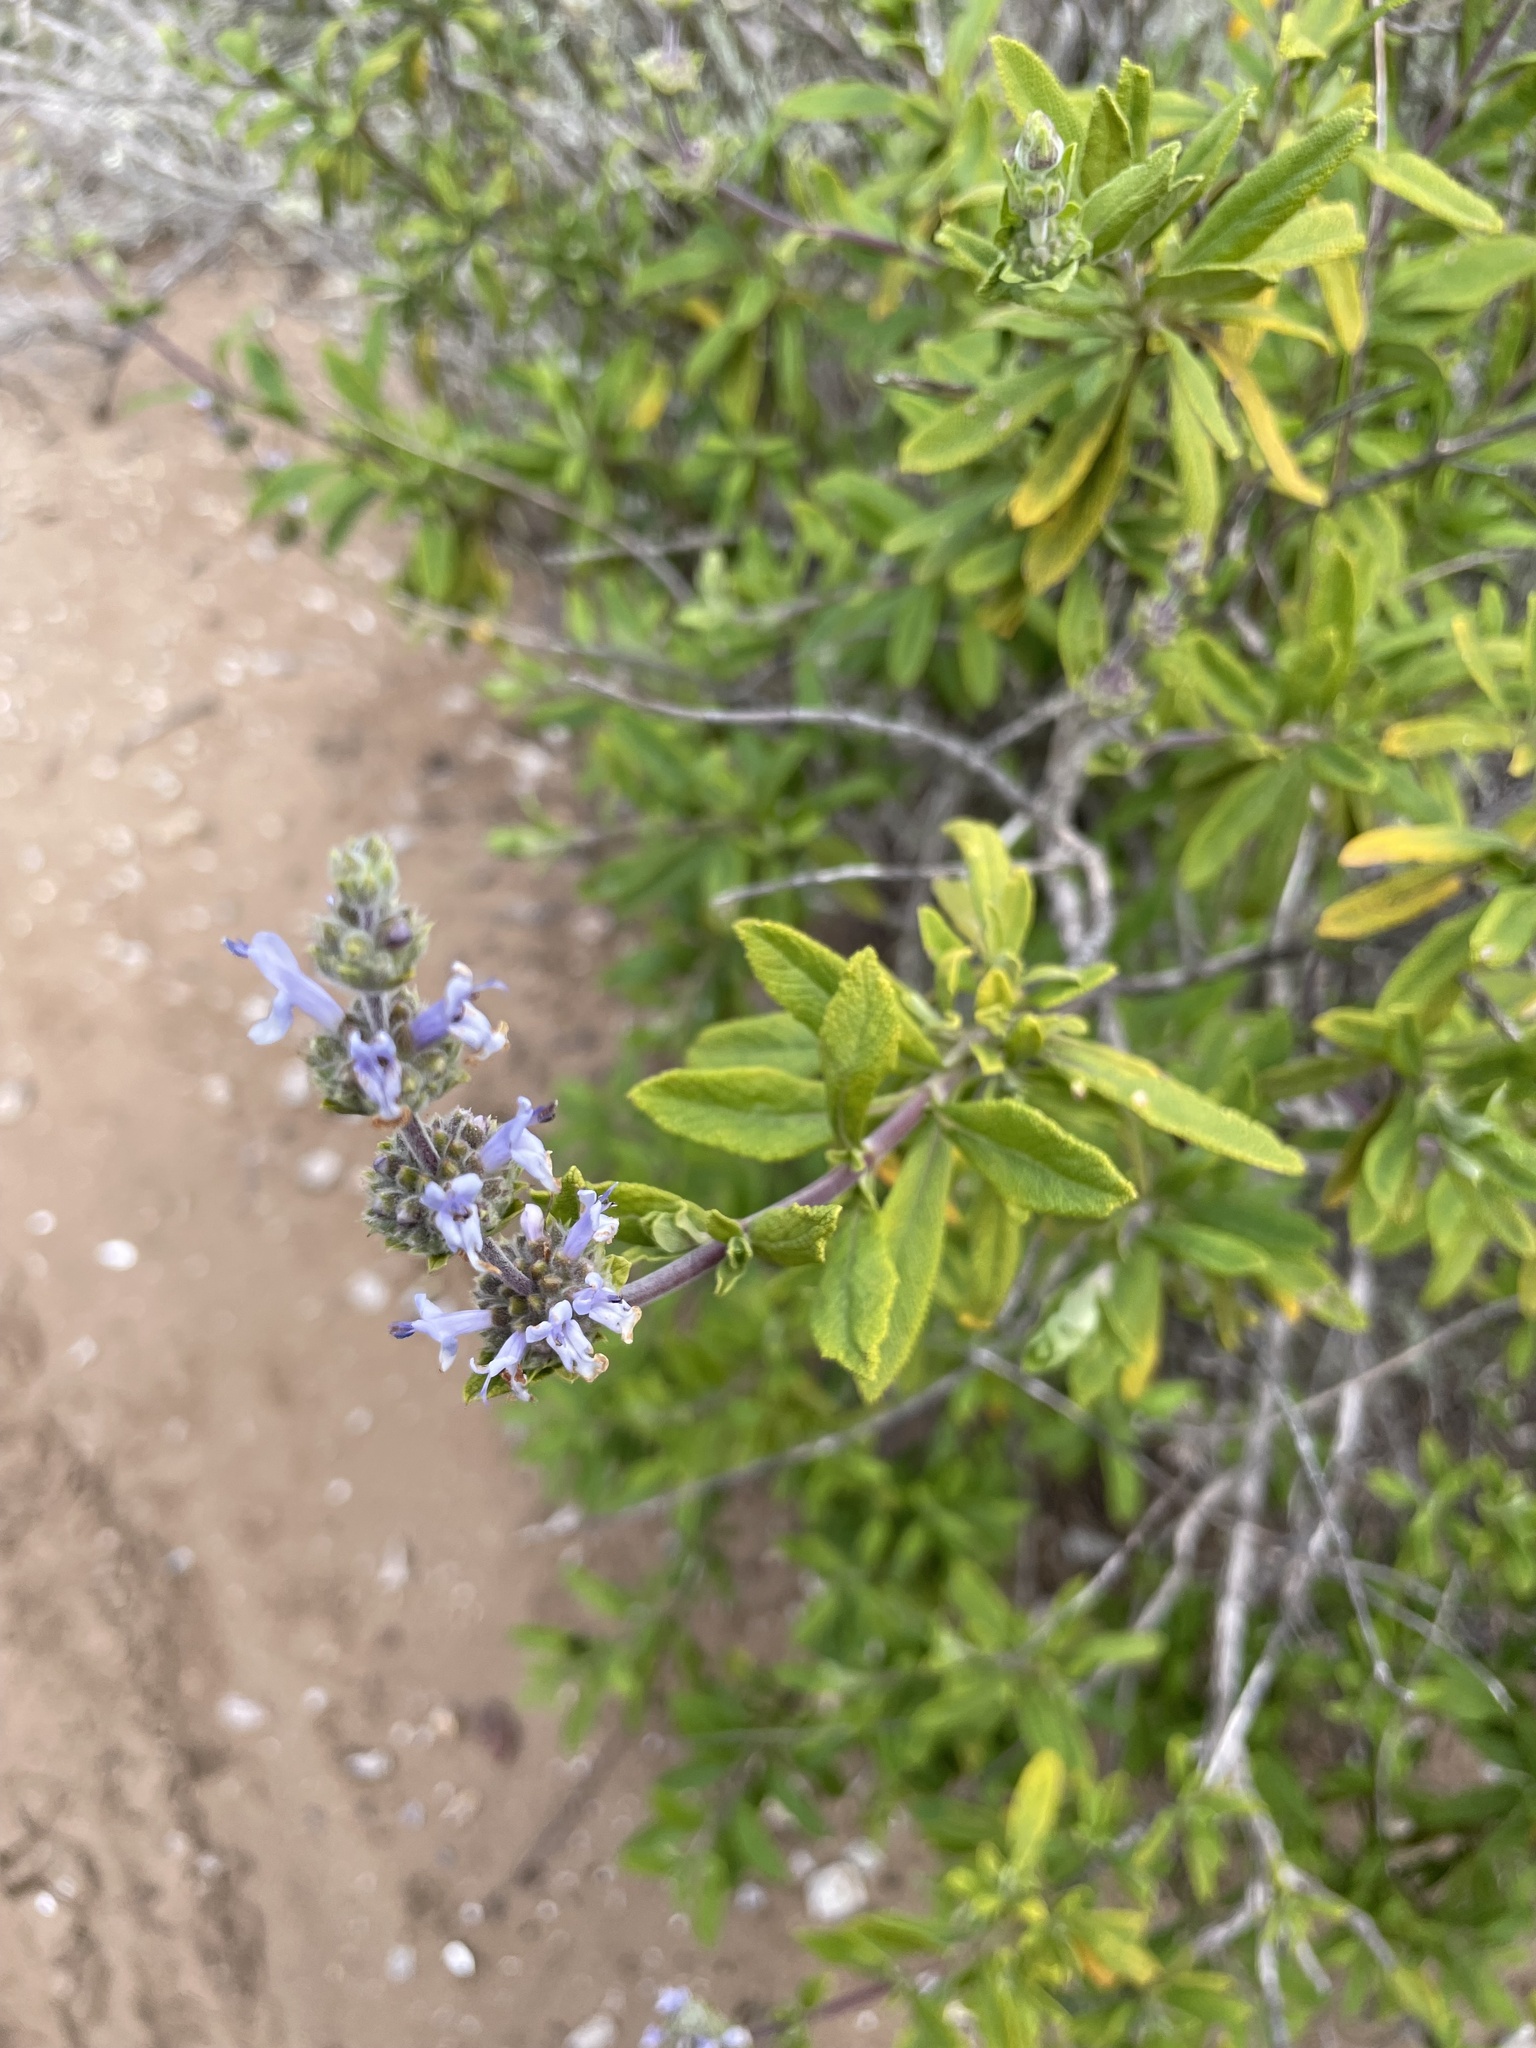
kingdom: Plantae
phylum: Tracheophyta
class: Magnoliopsida
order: Lamiales
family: Lamiaceae
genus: Salvia
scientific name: Salvia mellifera
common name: Black sage
